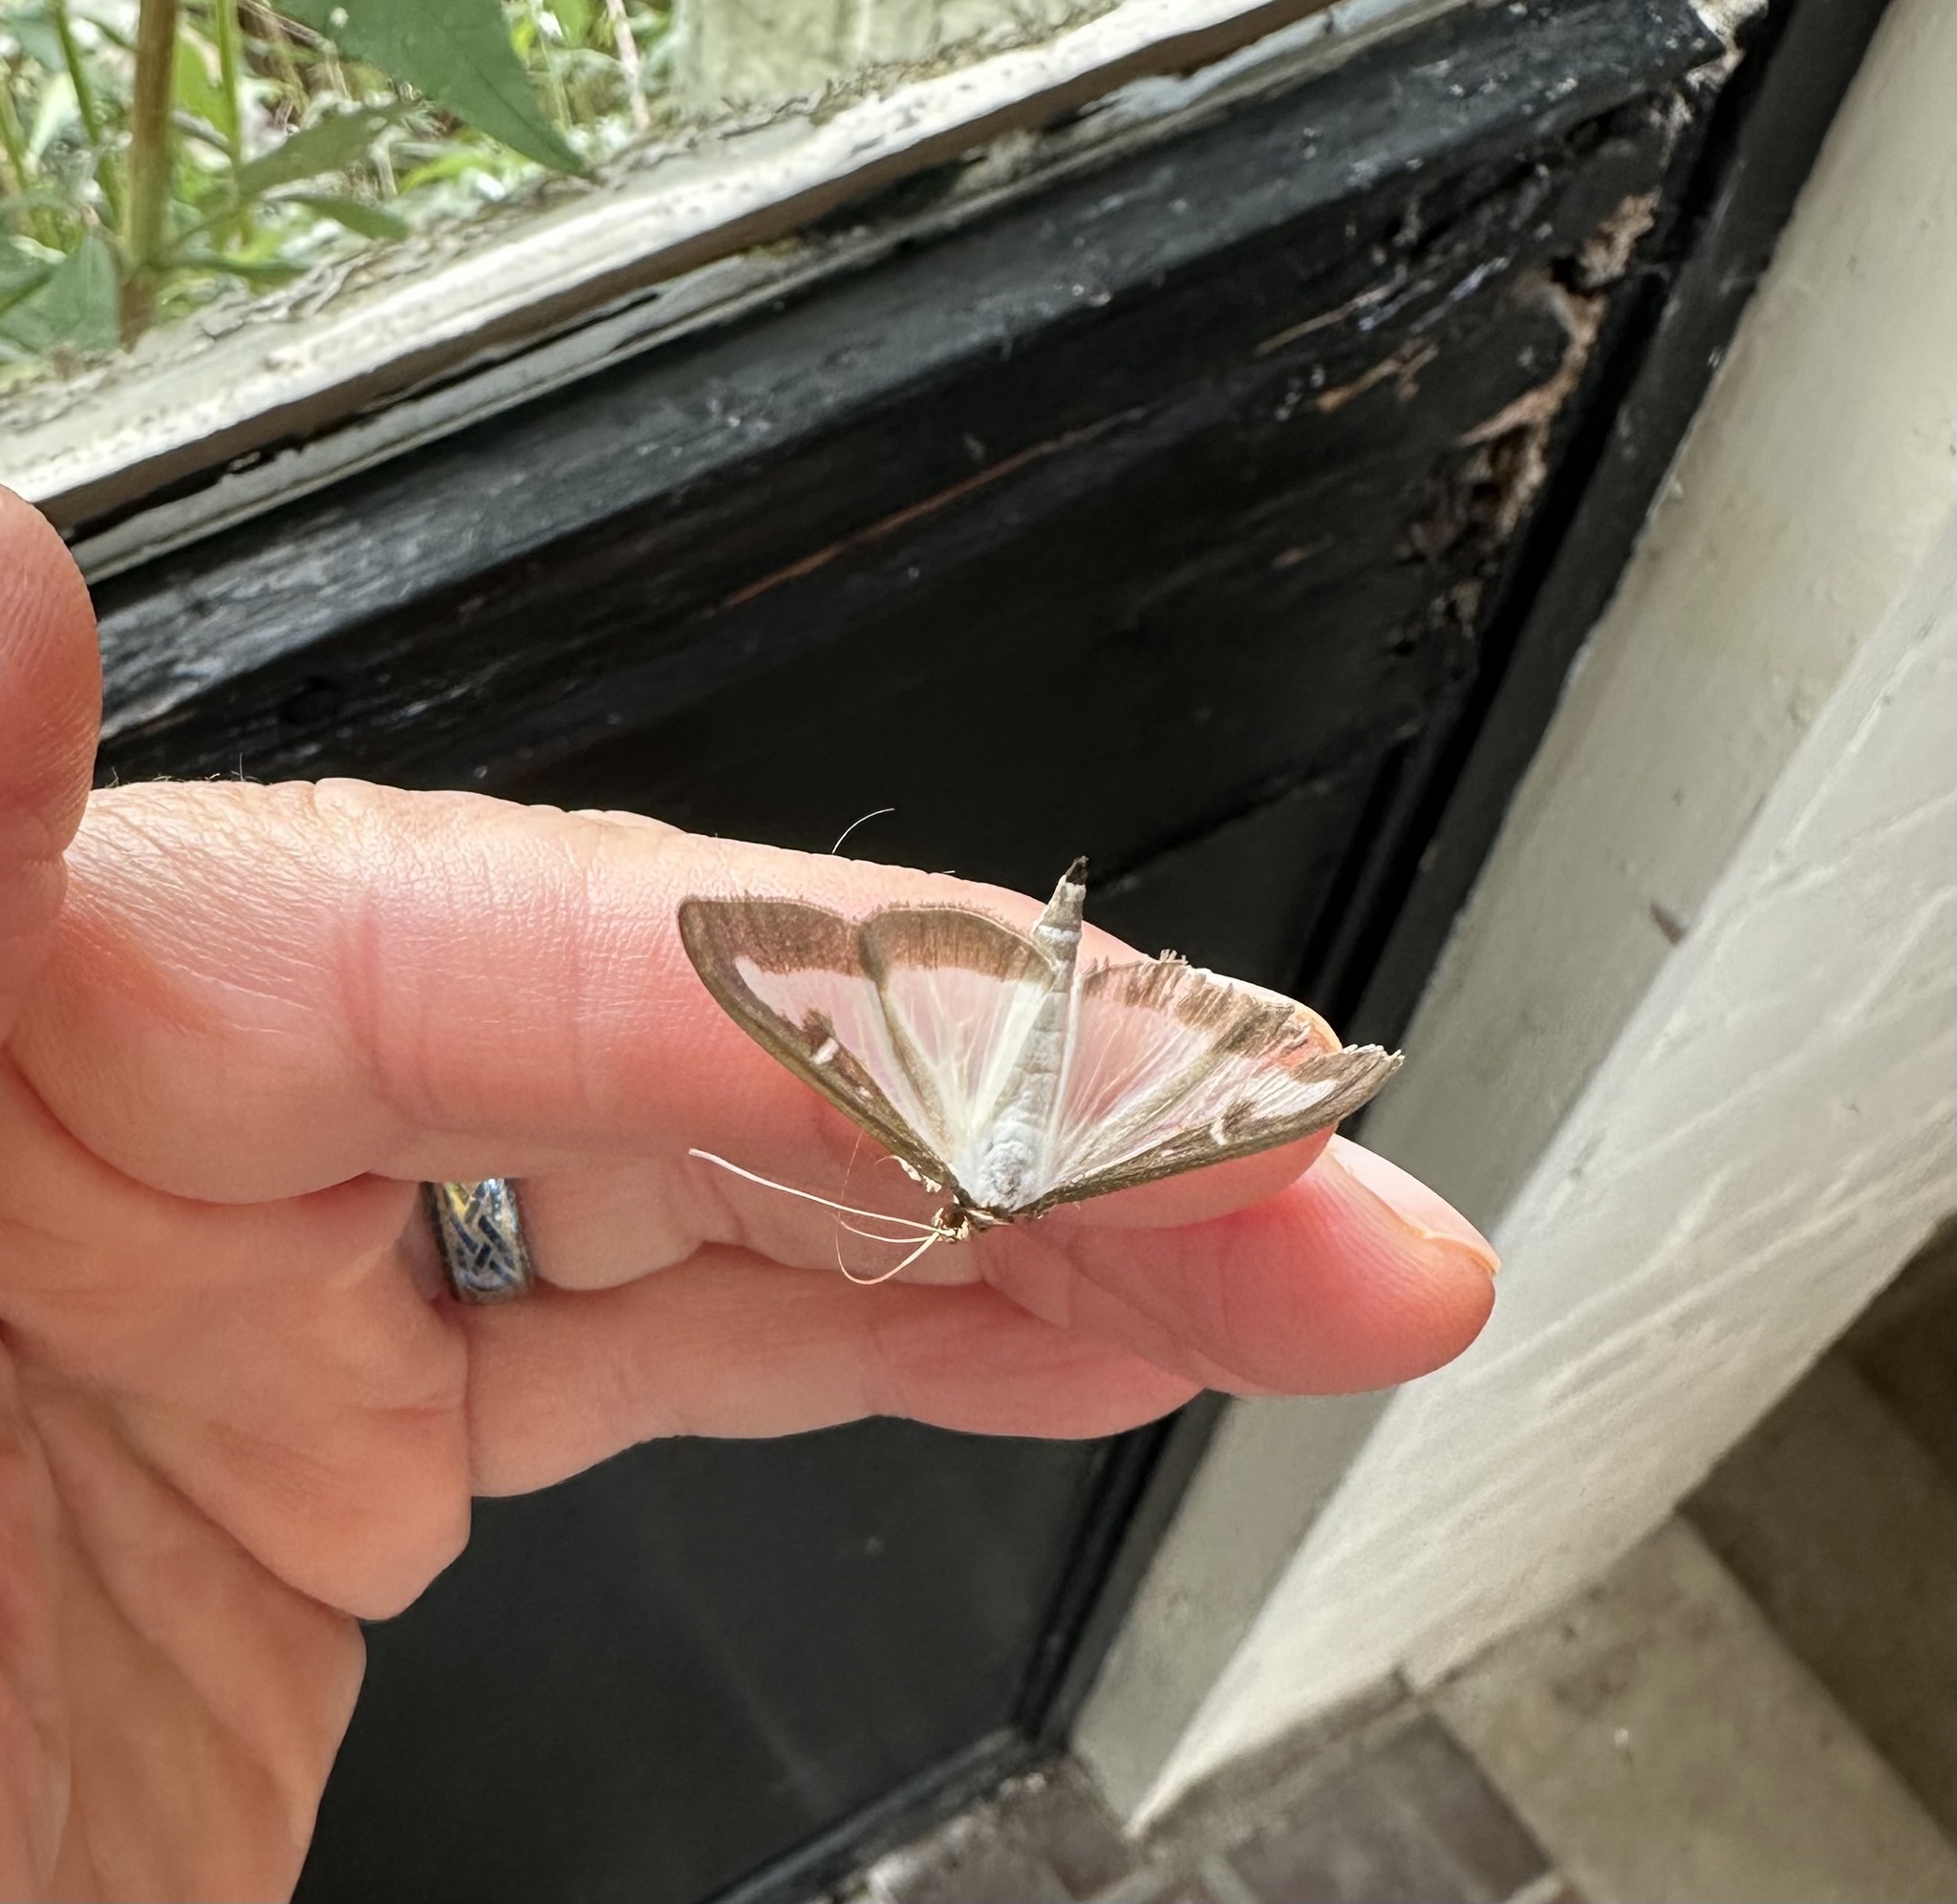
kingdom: Animalia
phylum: Arthropoda
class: Insecta
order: Lepidoptera
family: Crambidae
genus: Cydalima
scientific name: Cydalima perspectalis
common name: Box tree moth
